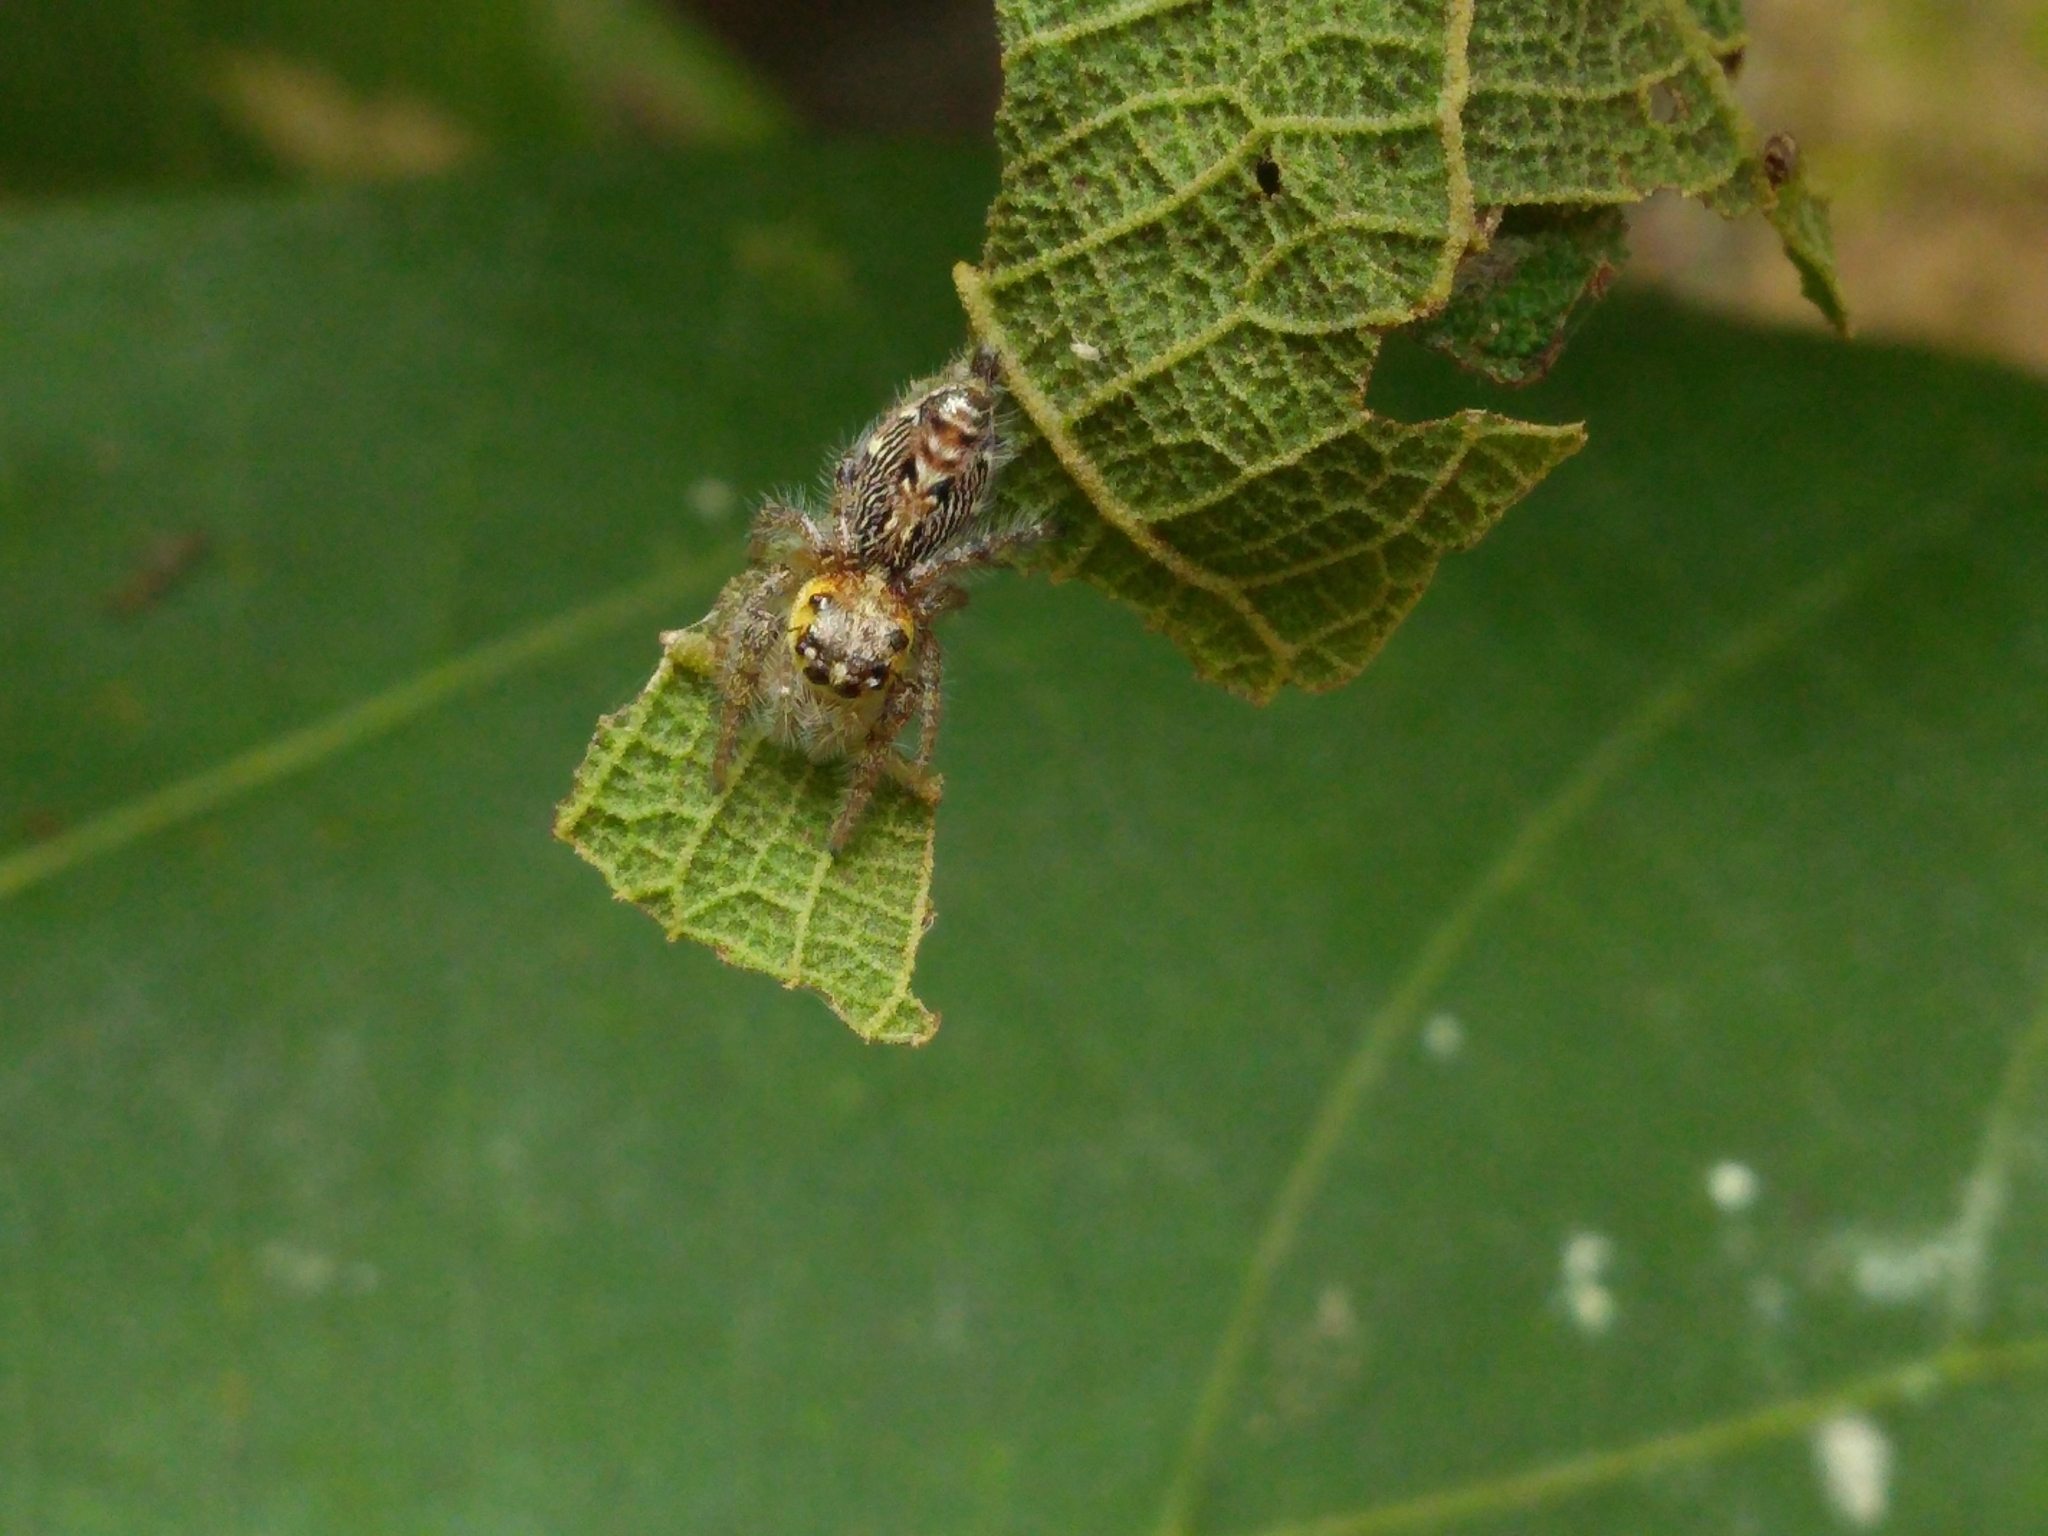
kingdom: Animalia
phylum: Arthropoda
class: Arachnida
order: Araneae
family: Salticidae
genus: Hyllus
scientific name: Hyllus semicupreus
